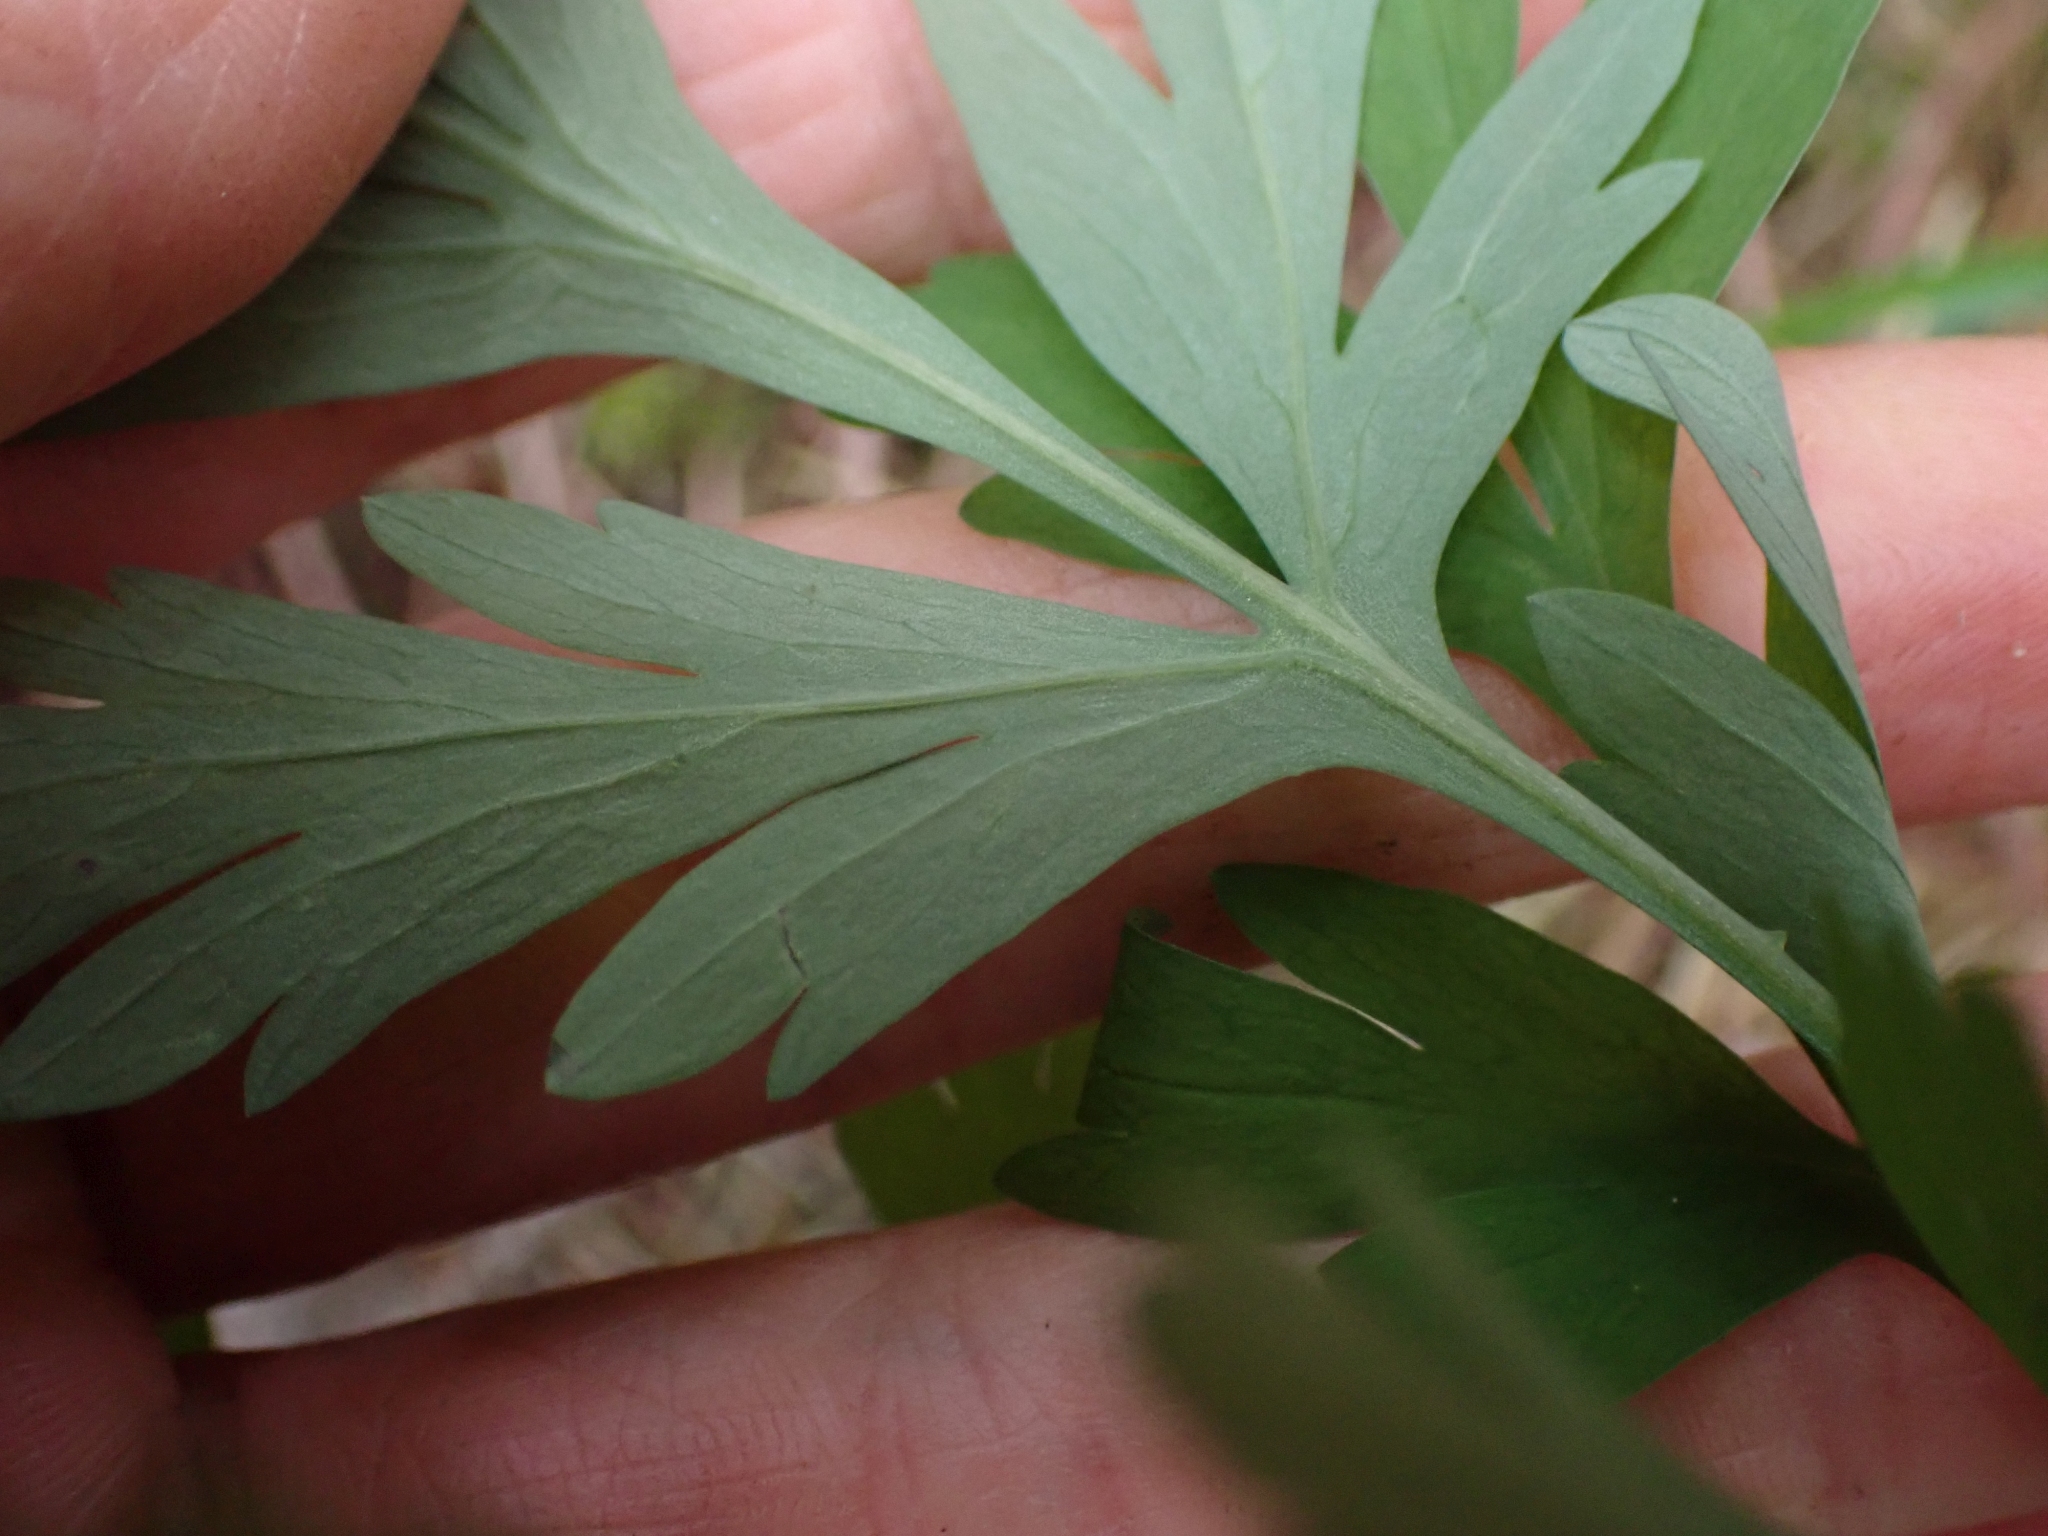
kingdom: Plantae
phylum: Tracheophyta
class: Magnoliopsida
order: Ranunculales
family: Papaveraceae
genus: Dicentra
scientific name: Dicentra formosa
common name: Bleeding-heart
